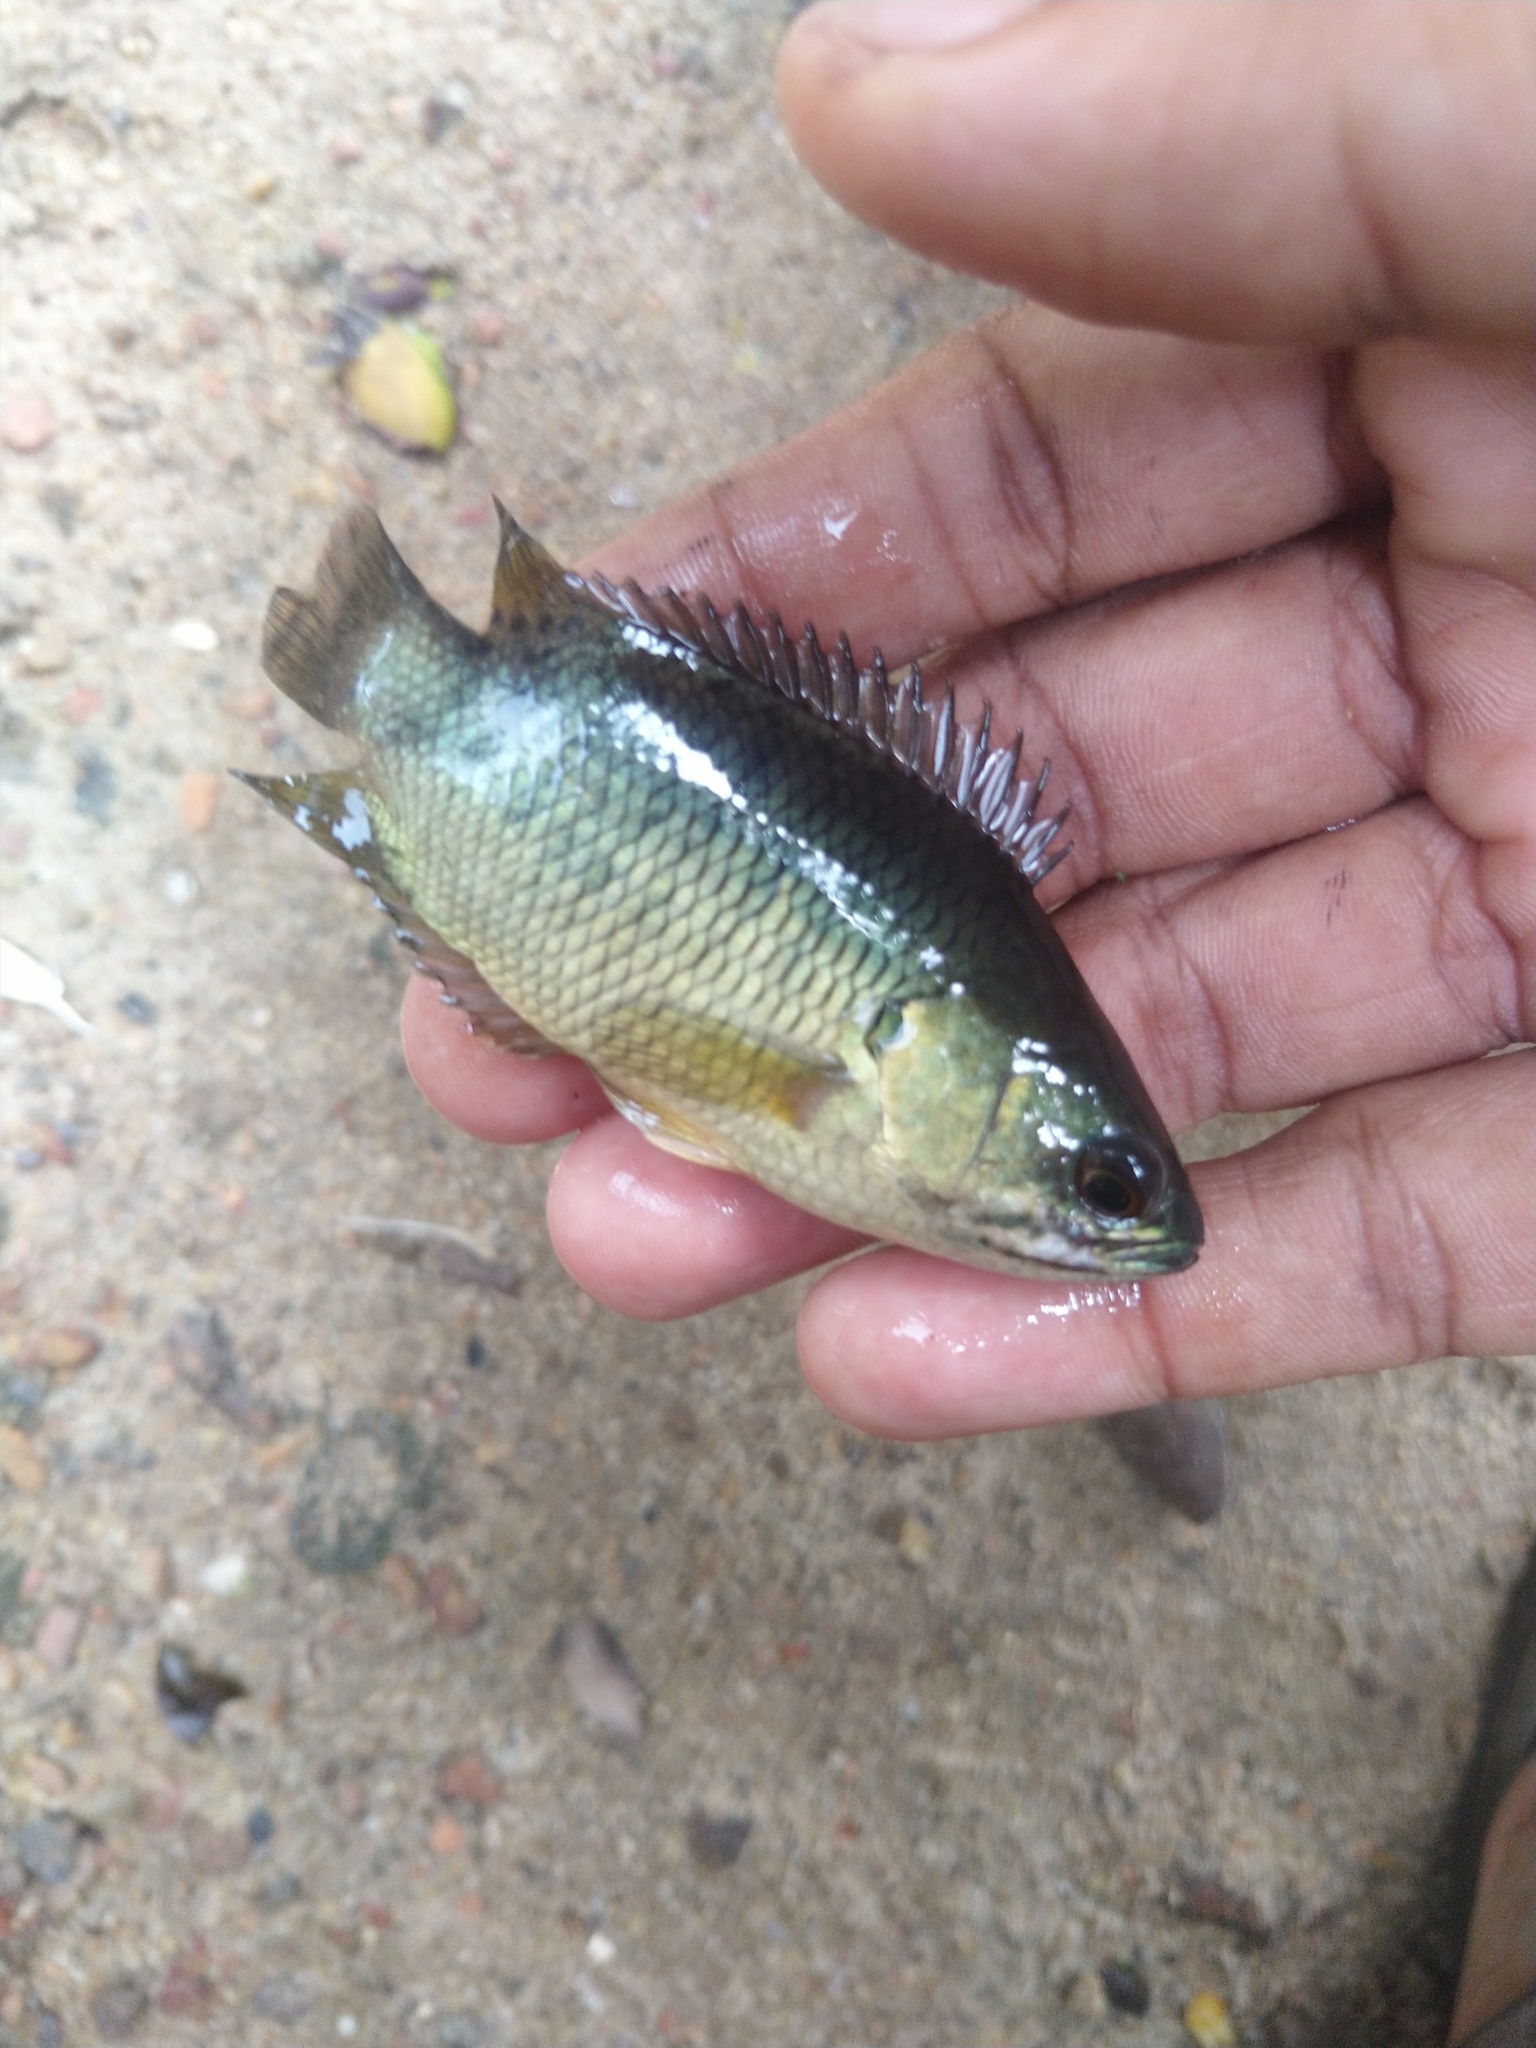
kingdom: Animalia
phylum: Chordata
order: Perciformes
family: Anabantidae
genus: Anabas
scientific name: Anabas testudineus
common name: Climbing perch
